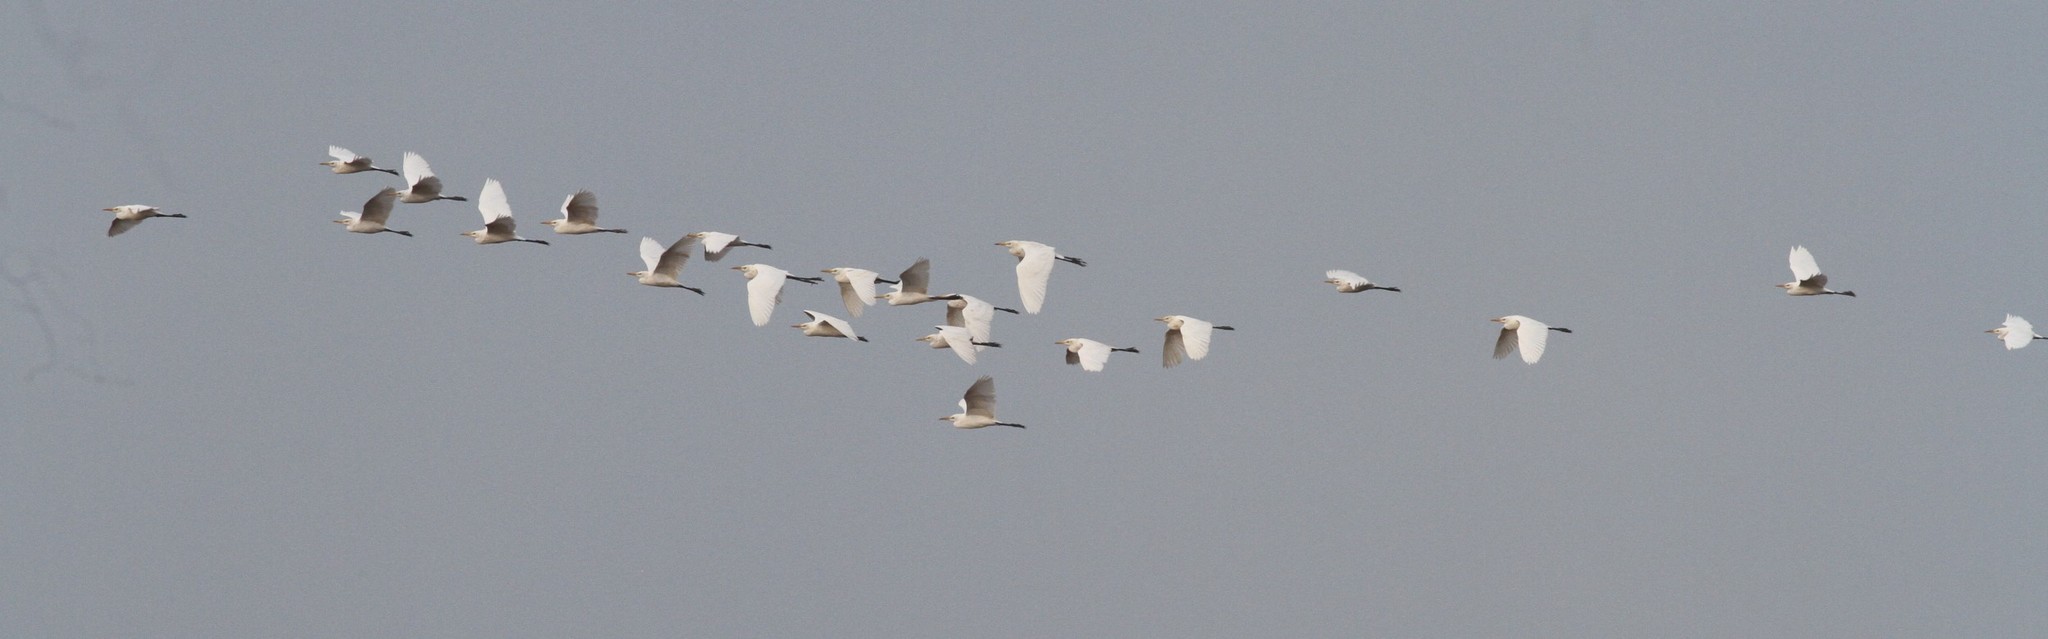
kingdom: Animalia
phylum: Chordata
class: Aves
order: Pelecaniformes
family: Ardeidae
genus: Bubulcus
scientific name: Bubulcus coromandus
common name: Eastern cattle egret
